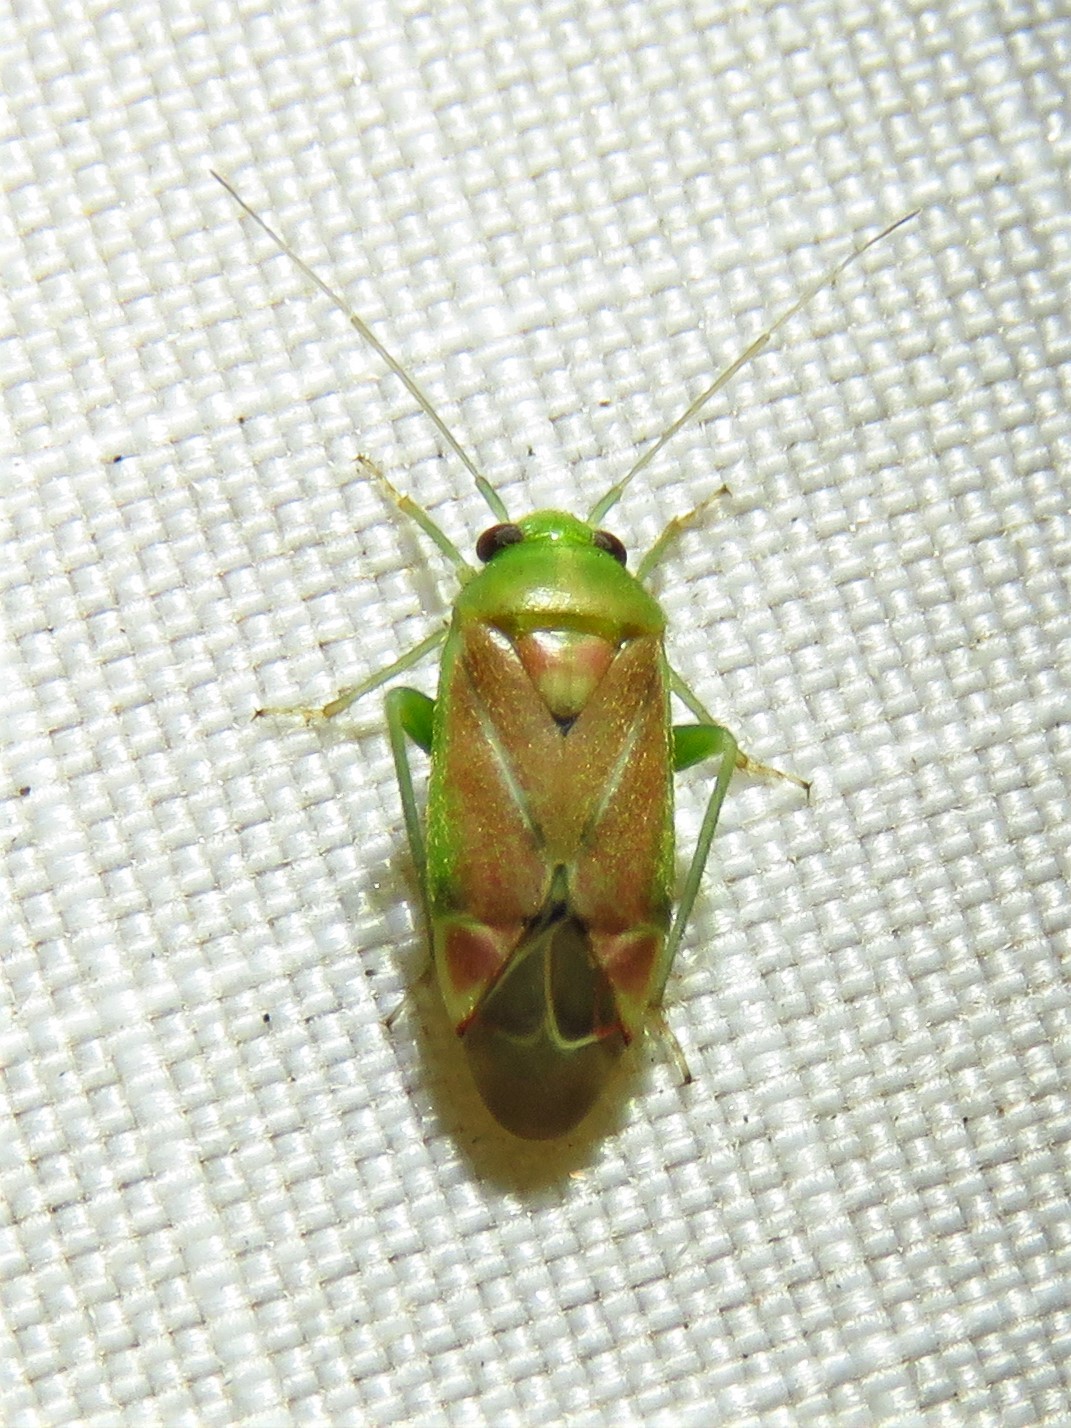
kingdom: Animalia
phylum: Arthropoda
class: Insecta
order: Hemiptera
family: Miridae
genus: Dichrooscytus
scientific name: Dichrooscytus
